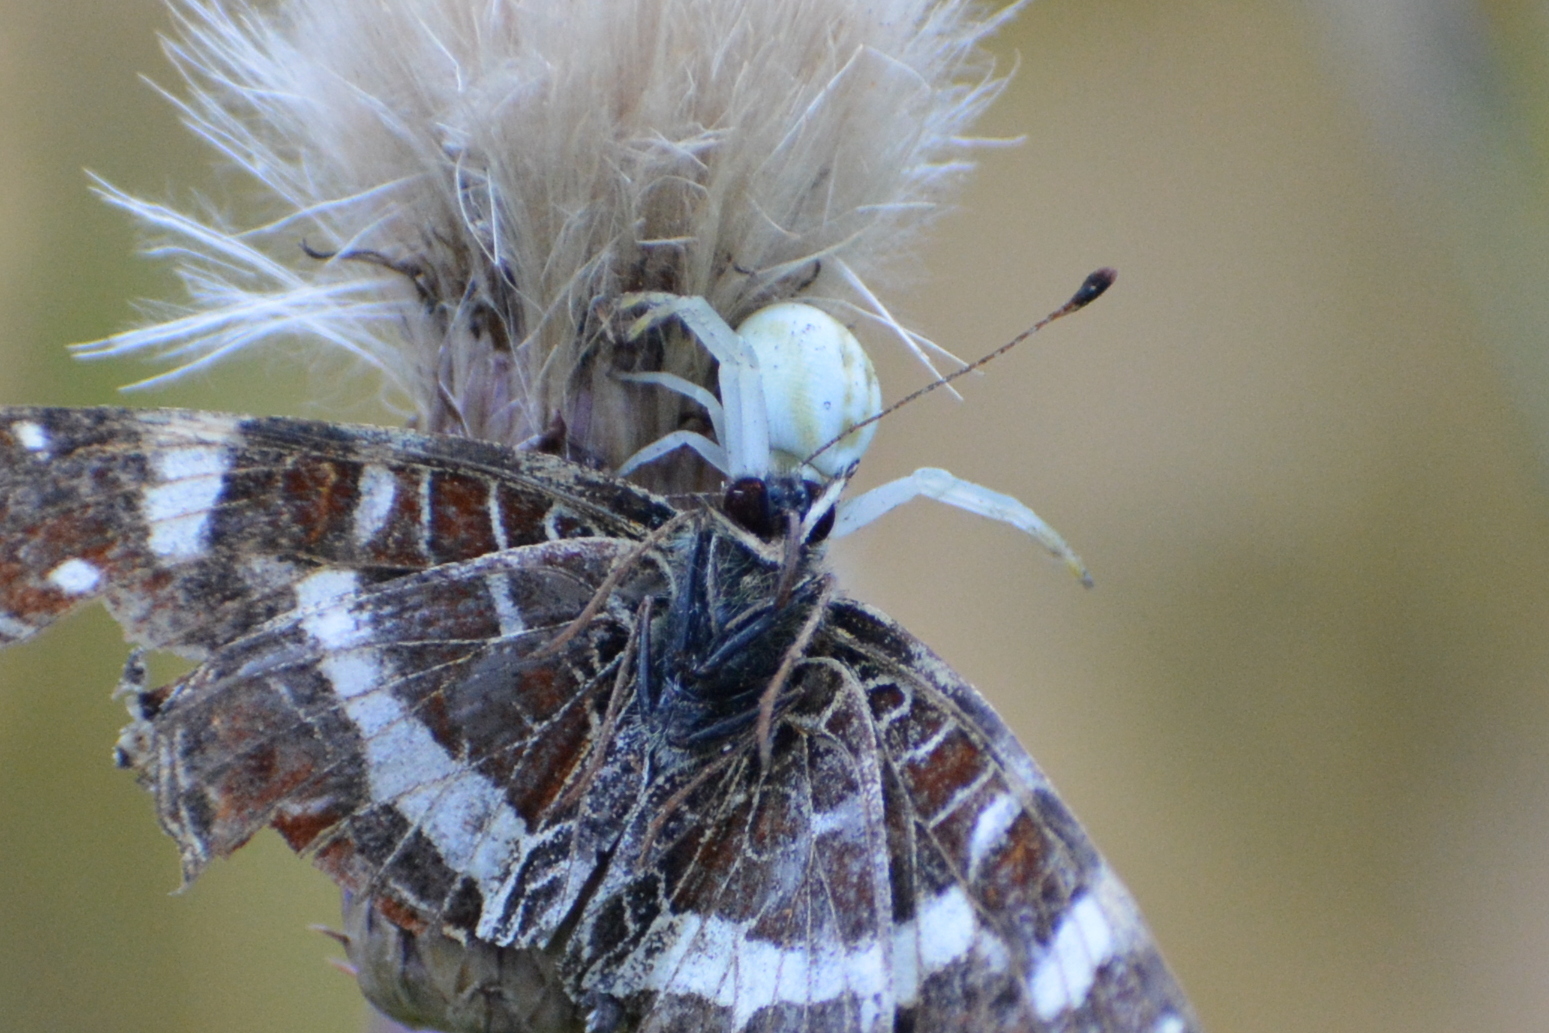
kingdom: Animalia
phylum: Arthropoda
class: Arachnida
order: Araneae
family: Thomisidae
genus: Misumena
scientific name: Misumena vatia
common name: Goldenrod crab spider
